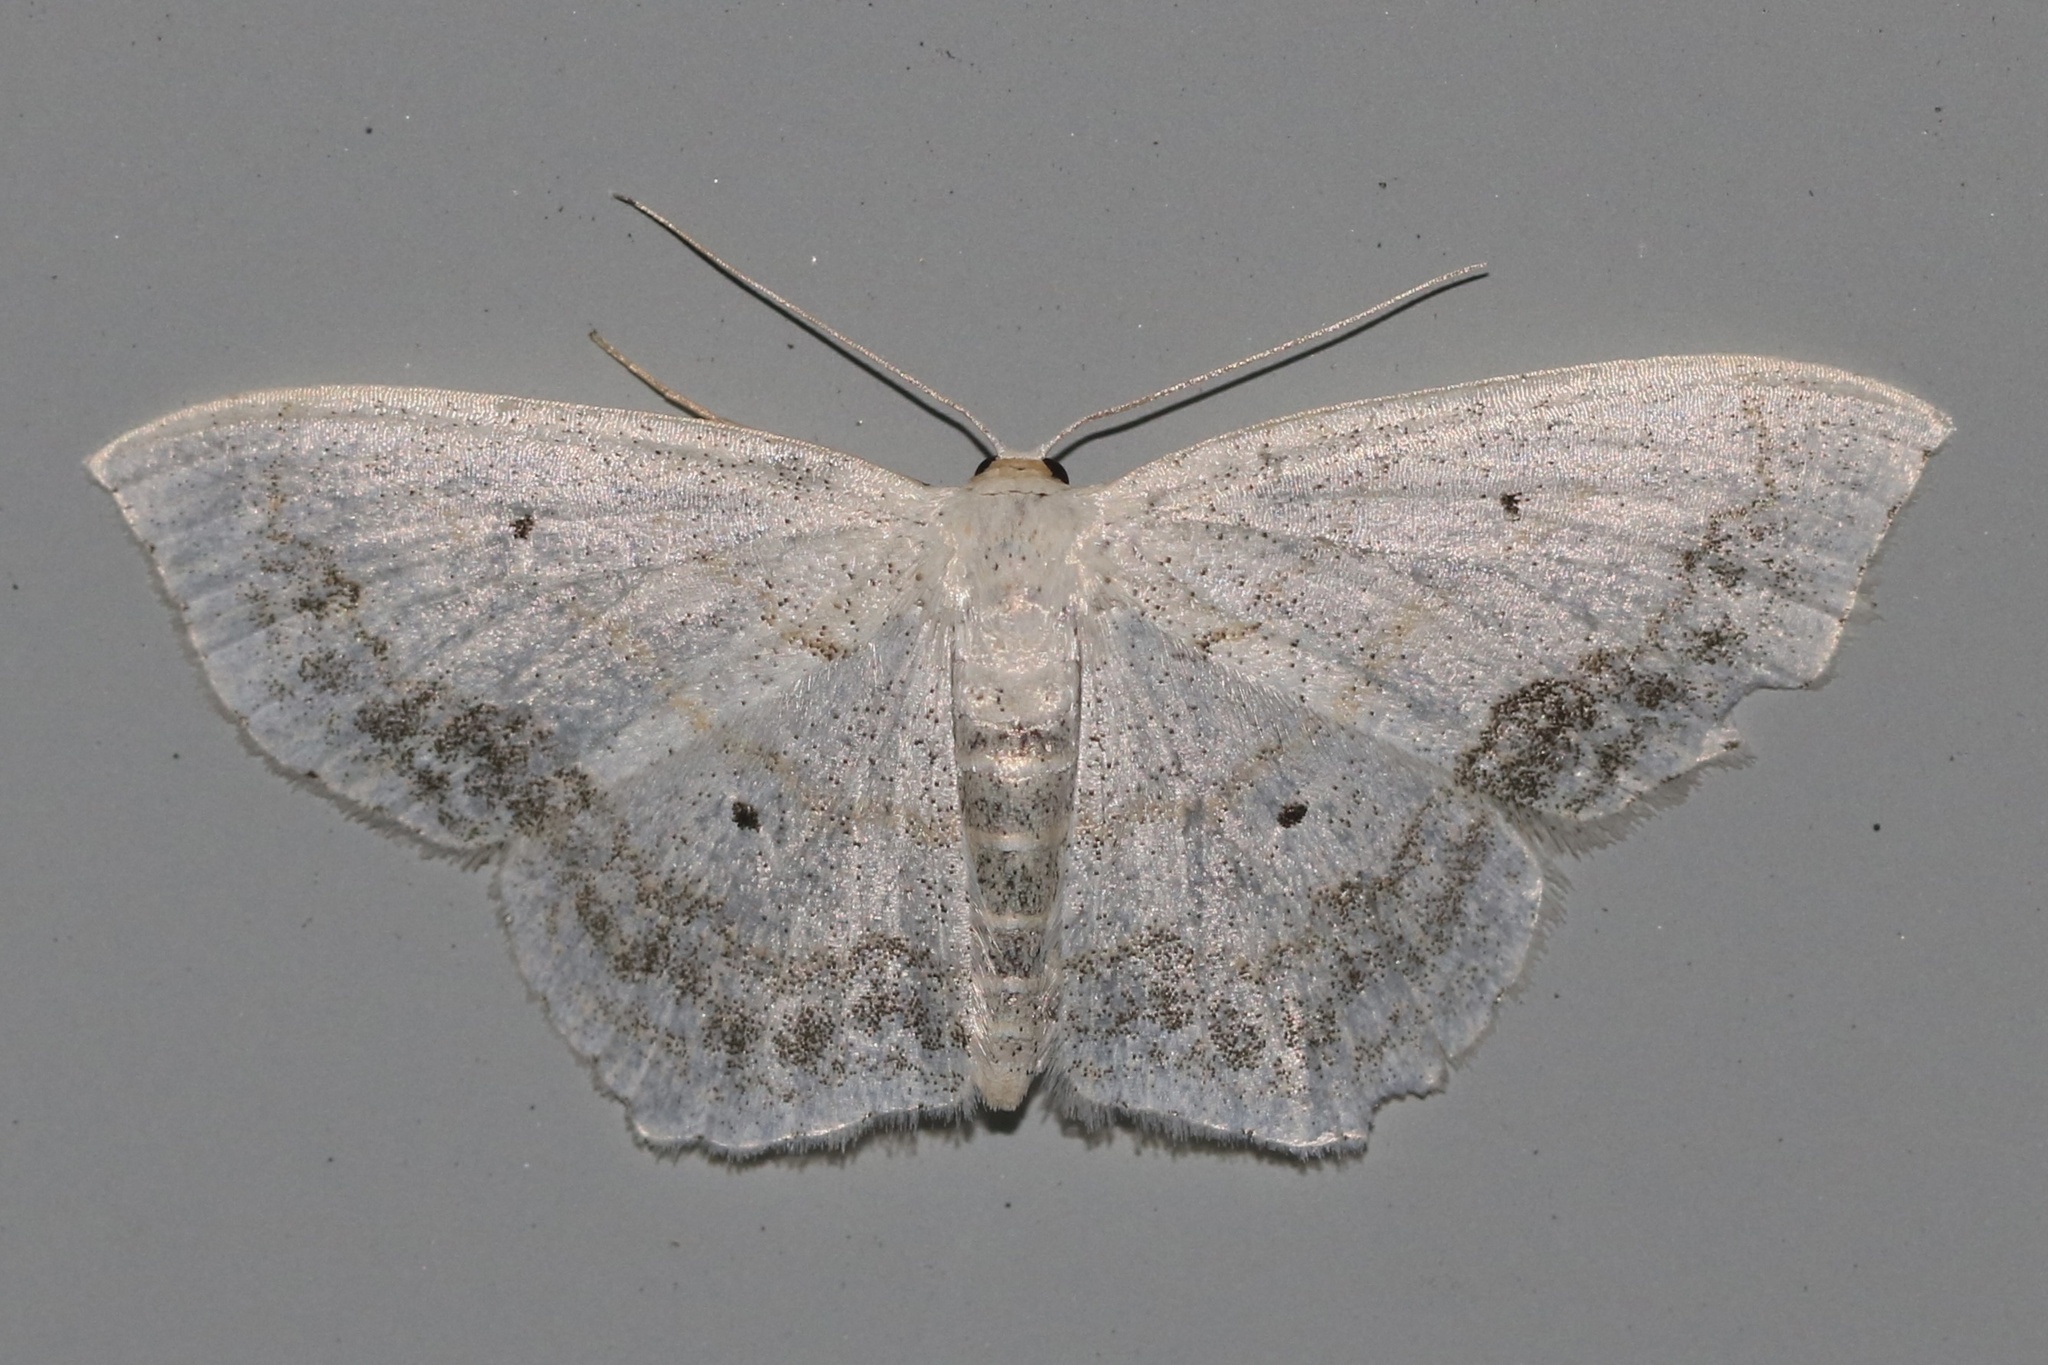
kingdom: Animalia
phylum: Arthropoda
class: Insecta
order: Lepidoptera
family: Geometridae
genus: Scopula
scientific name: Scopula limboundata
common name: Large lace border
